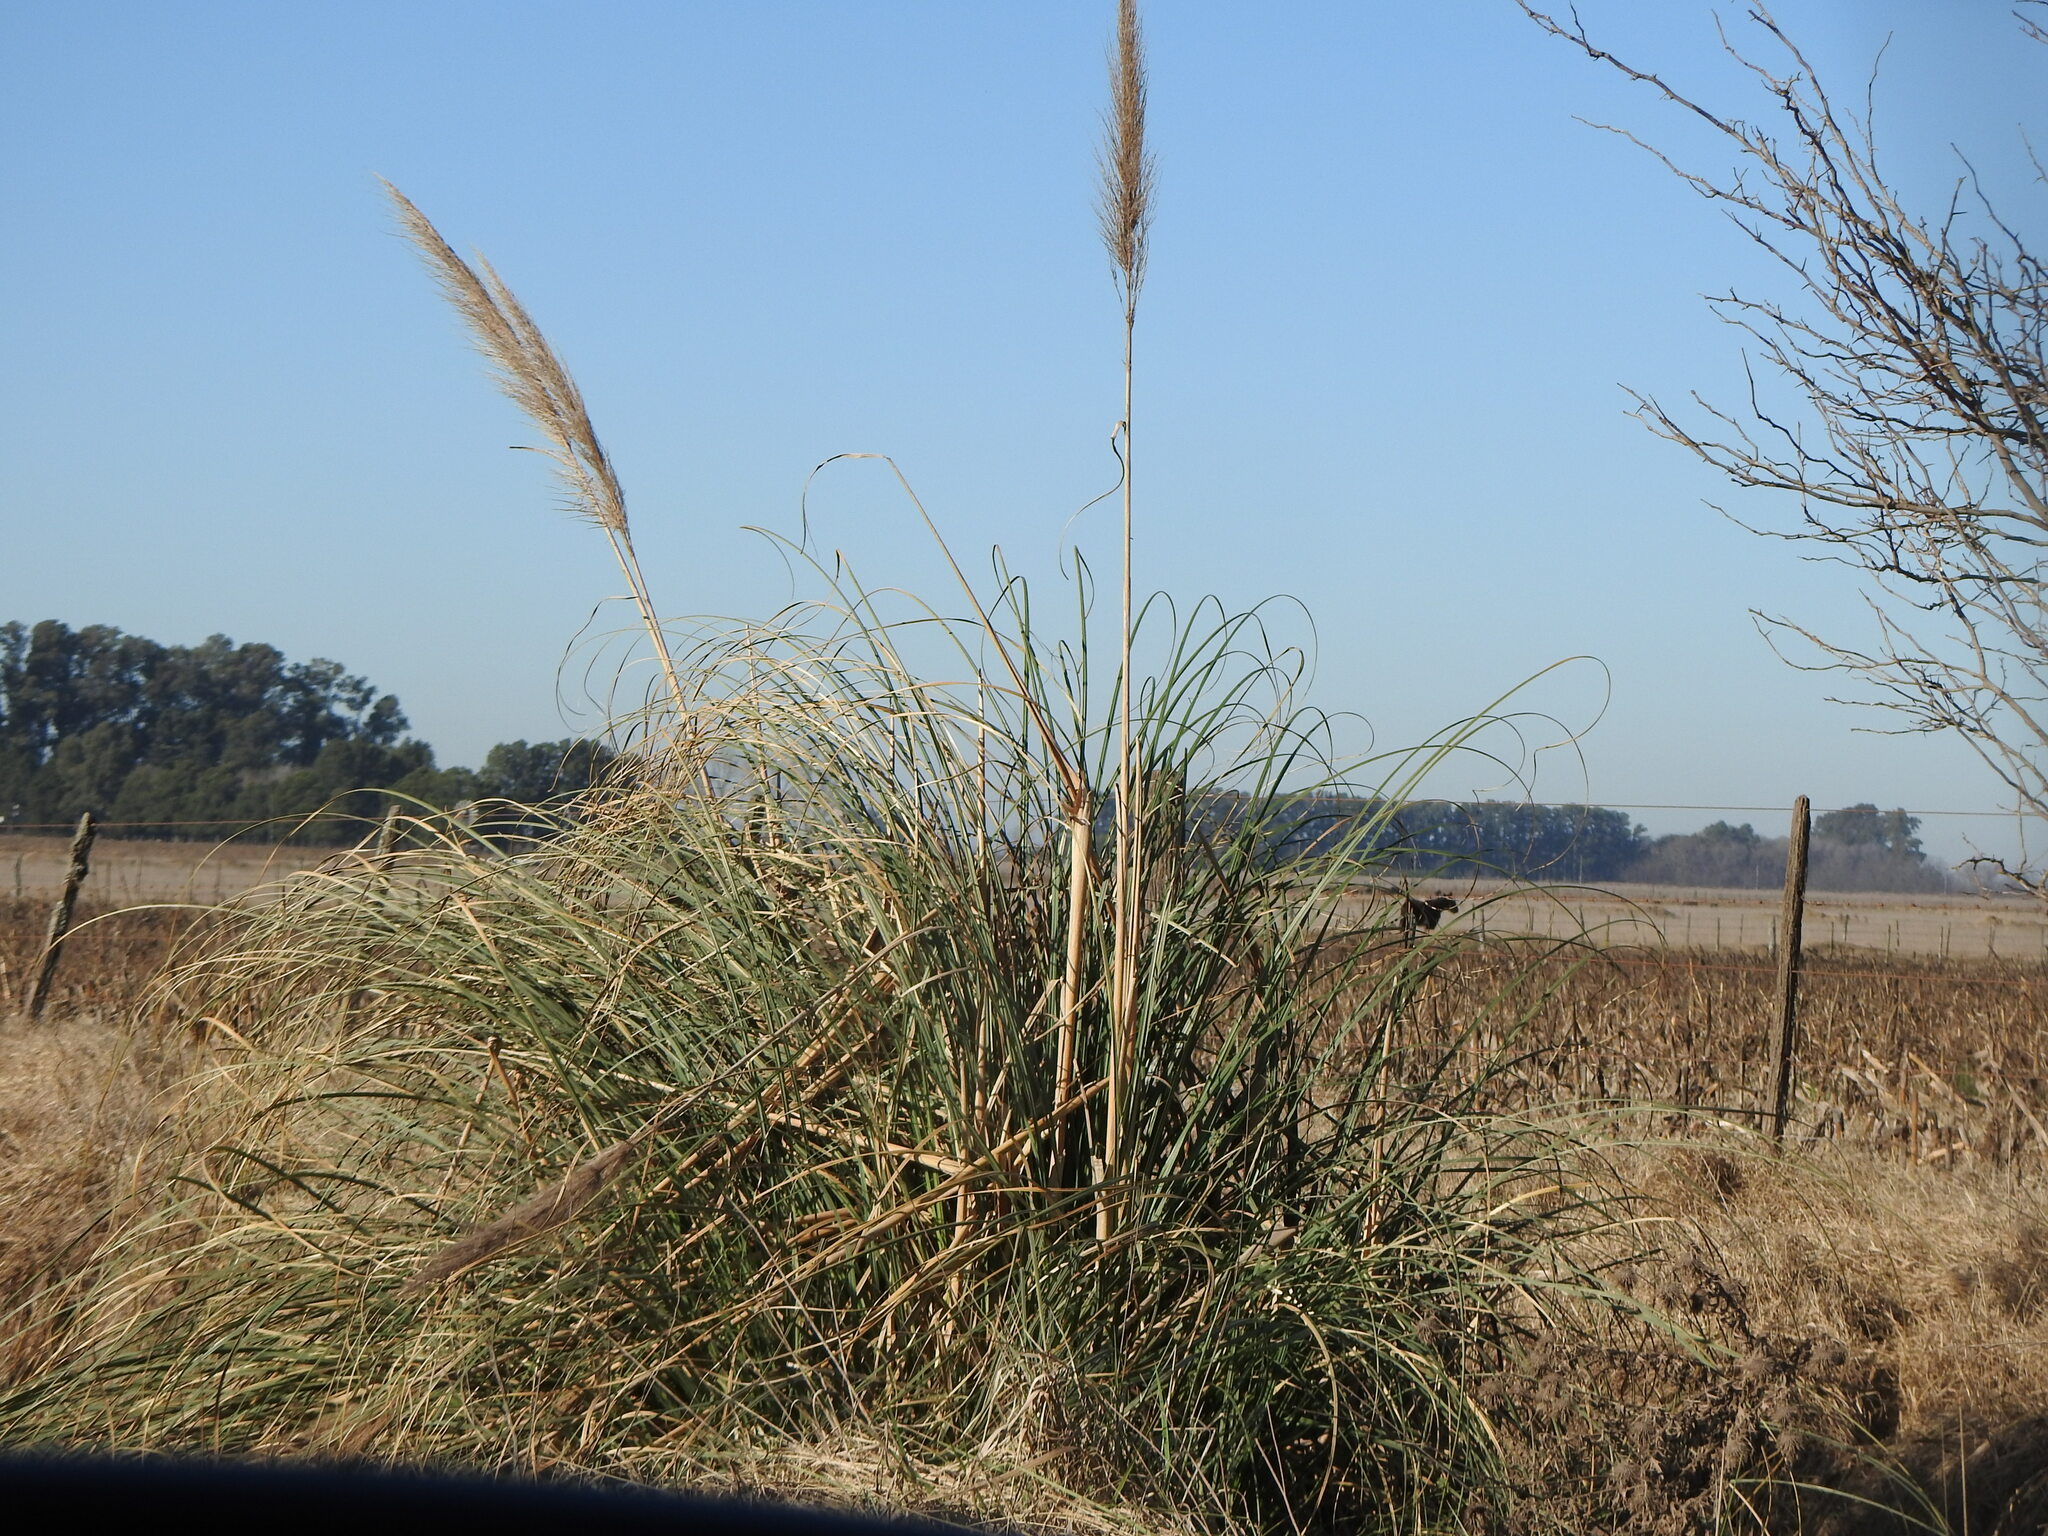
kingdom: Plantae
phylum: Tracheophyta
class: Liliopsida
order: Poales
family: Poaceae
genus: Cortaderia
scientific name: Cortaderia selloana
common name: Uruguayan pampas grass
